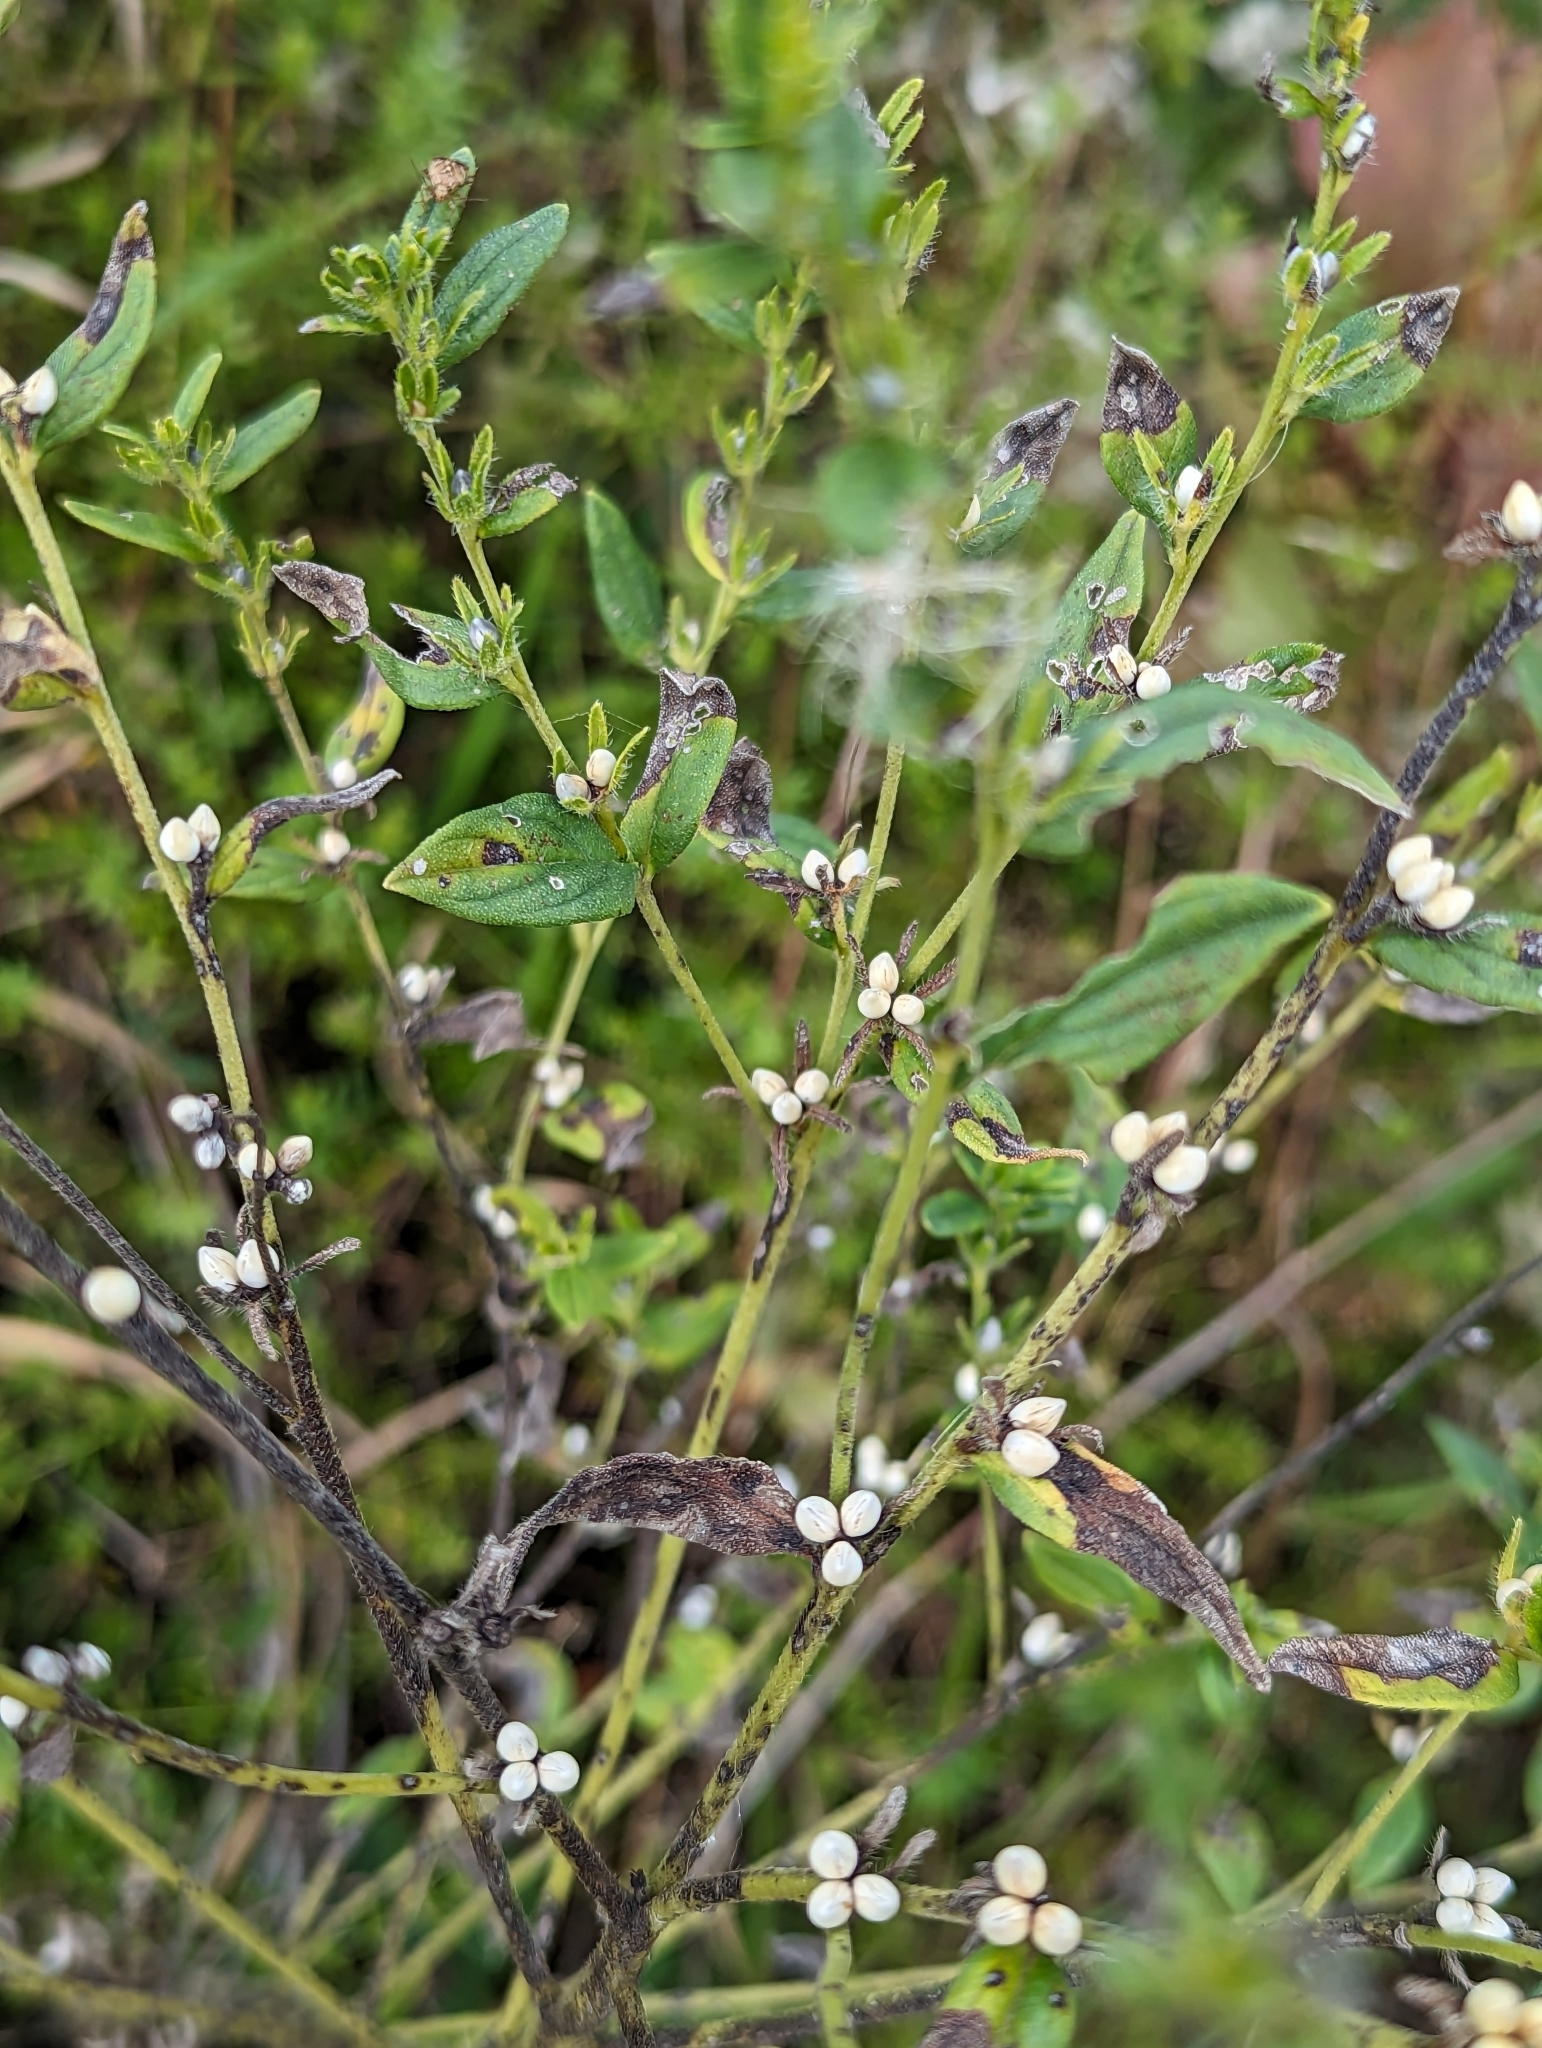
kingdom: Plantae
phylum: Tracheophyta
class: Magnoliopsida
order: Boraginales
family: Boraginaceae
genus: Lithospermum
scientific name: Lithospermum officinale
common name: Common gromwell
